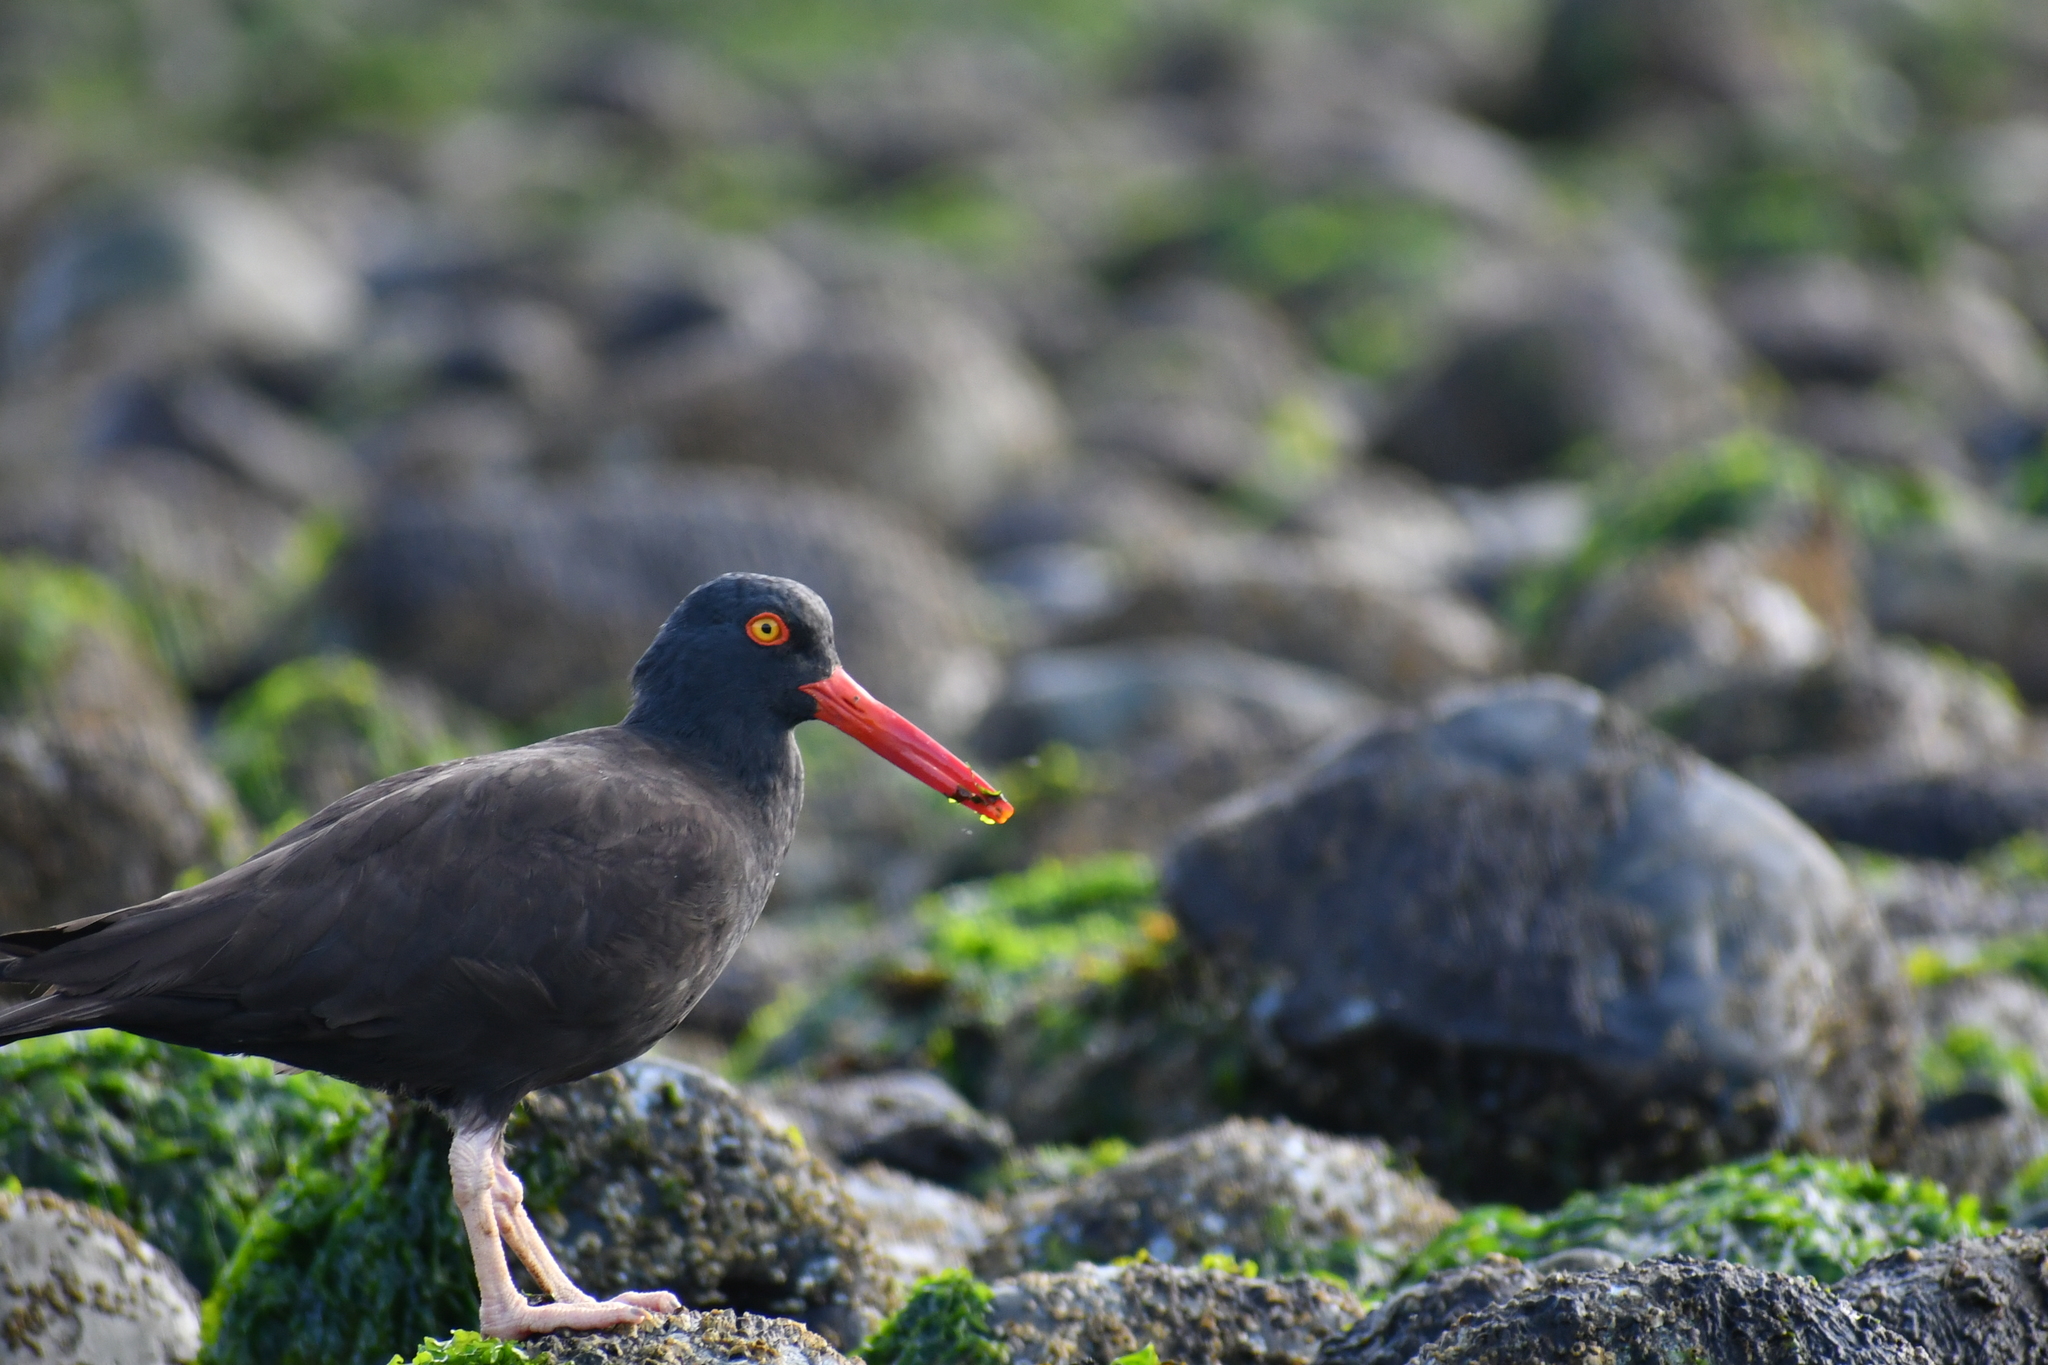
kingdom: Animalia
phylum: Chordata
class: Aves
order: Charadriiformes
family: Haematopodidae
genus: Haematopus
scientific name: Haematopus bachmani
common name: Black oystercatcher
